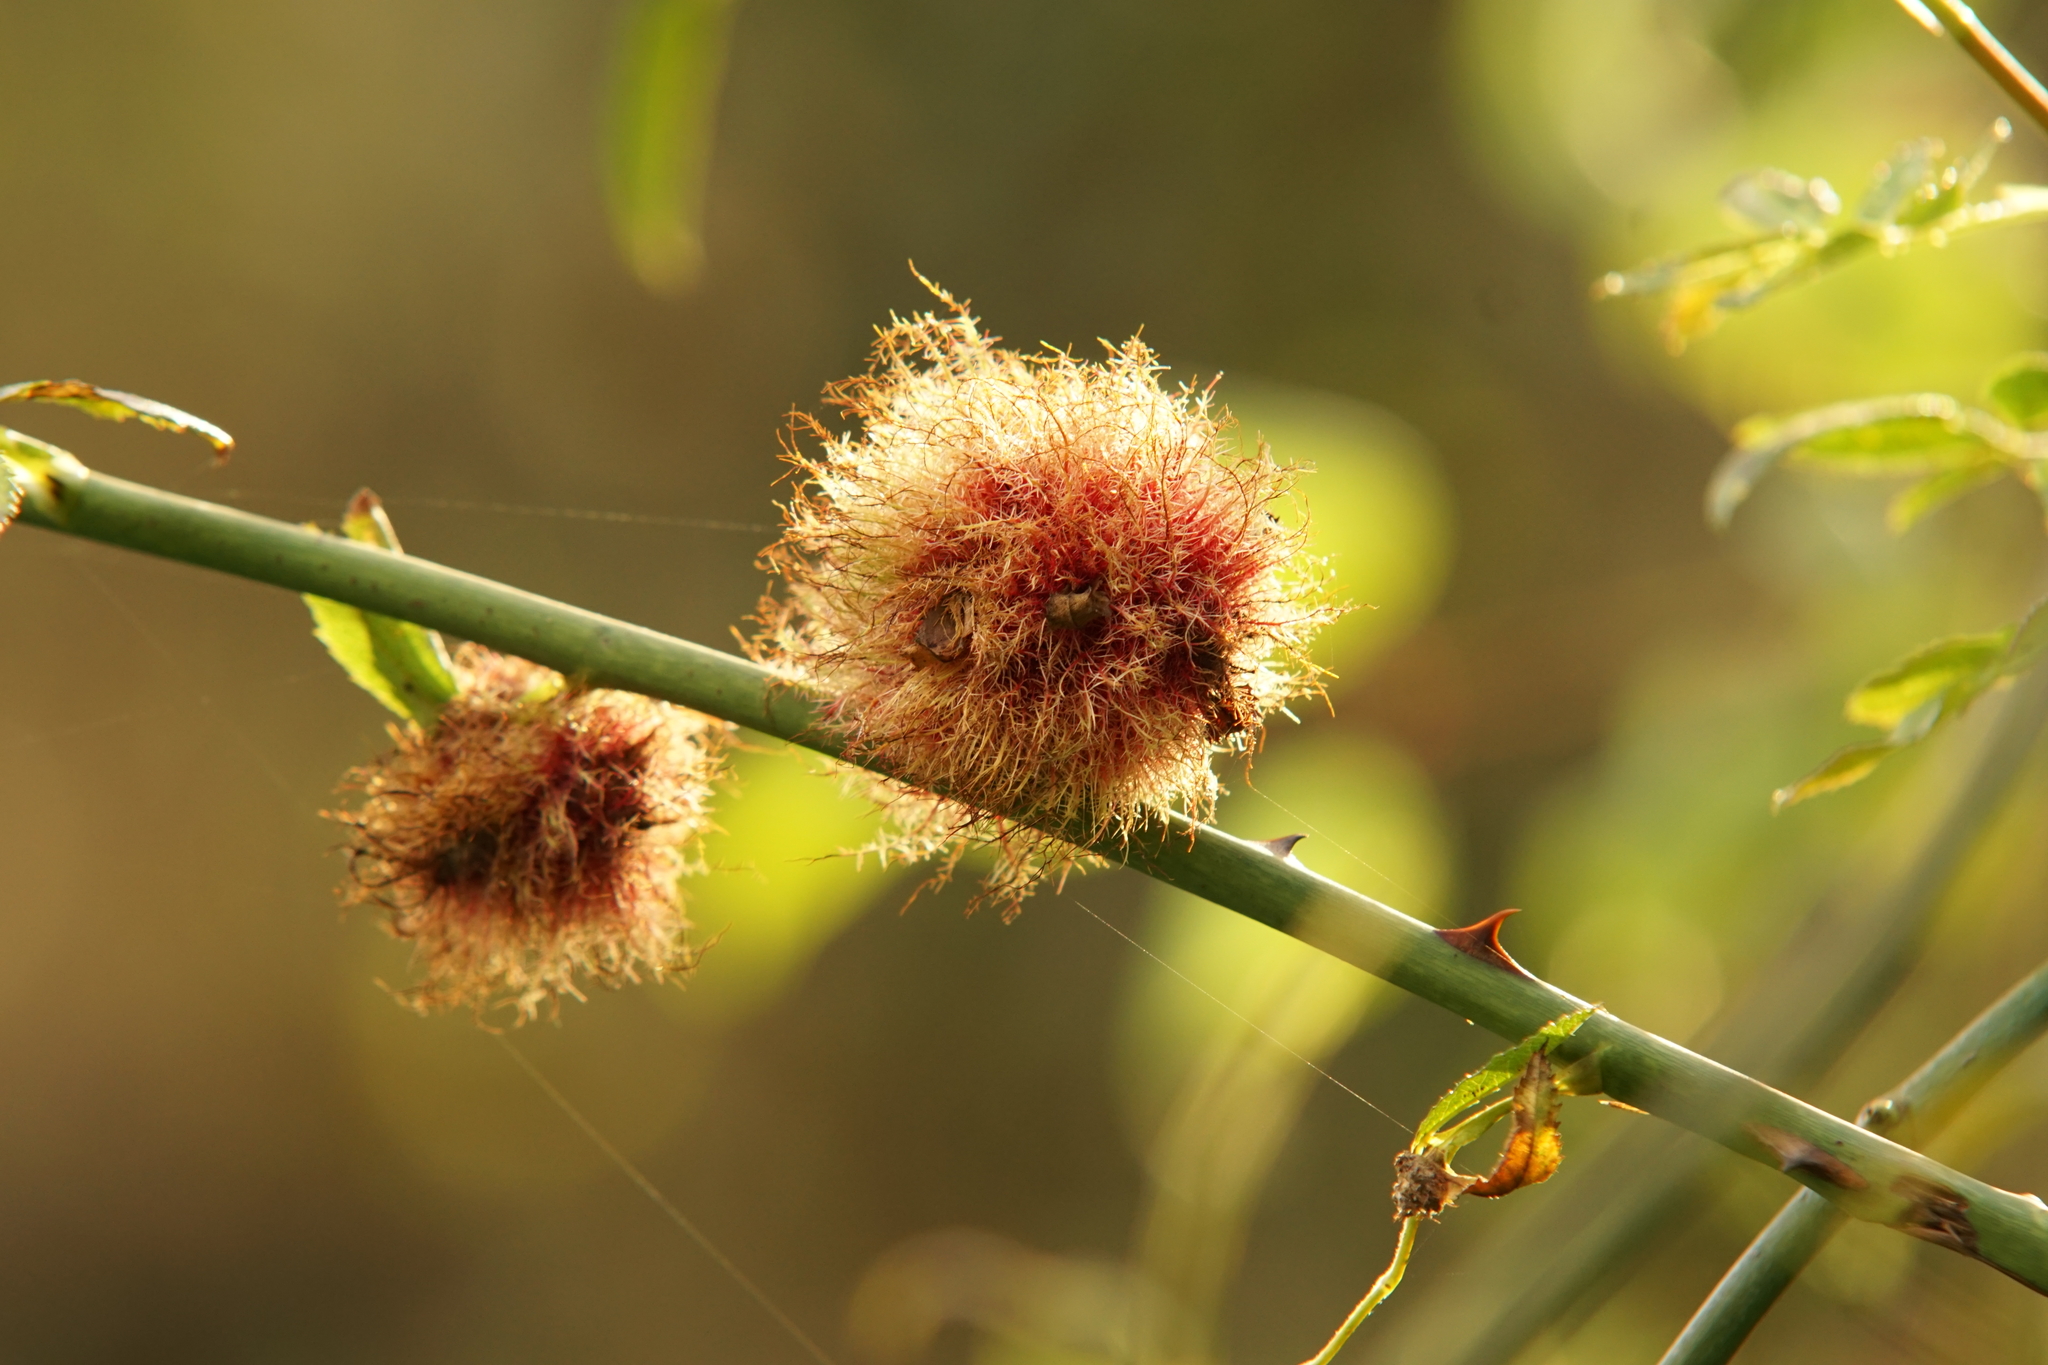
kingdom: Animalia
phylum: Arthropoda
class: Insecta
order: Hymenoptera
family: Cynipidae
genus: Diplolepis
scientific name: Diplolepis rosae
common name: Bedeguar gall
